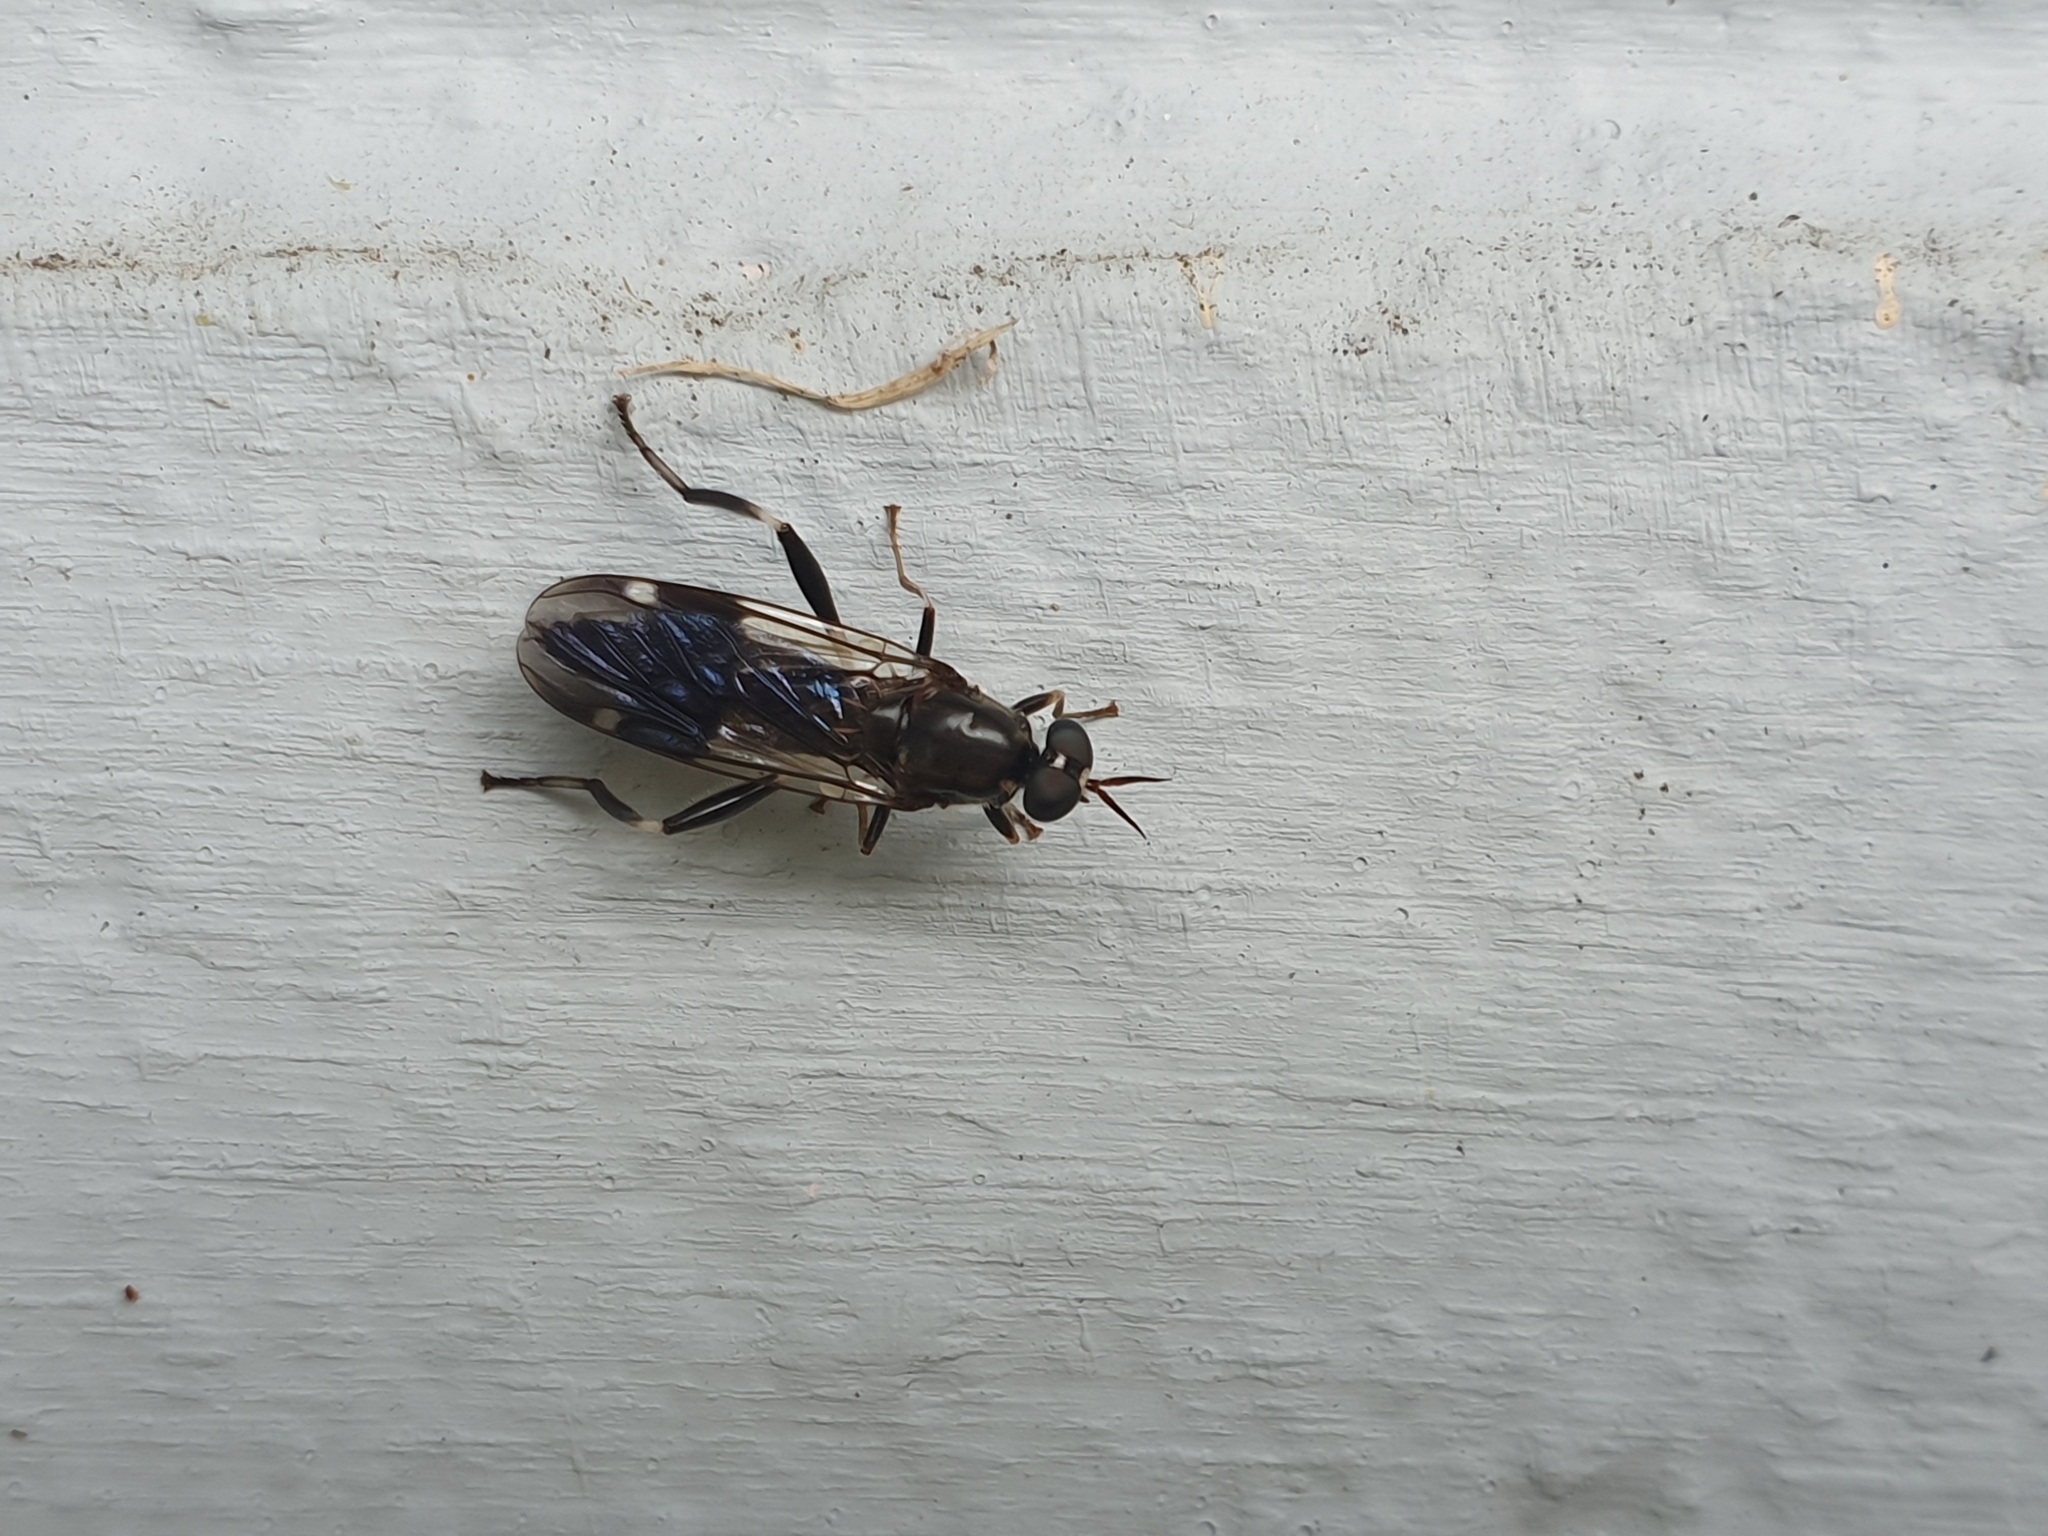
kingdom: Animalia
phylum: Arthropoda
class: Insecta
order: Diptera
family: Stratiomyidae
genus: Exaireta
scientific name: Exaireta spinigera
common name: Blue soldier fly
